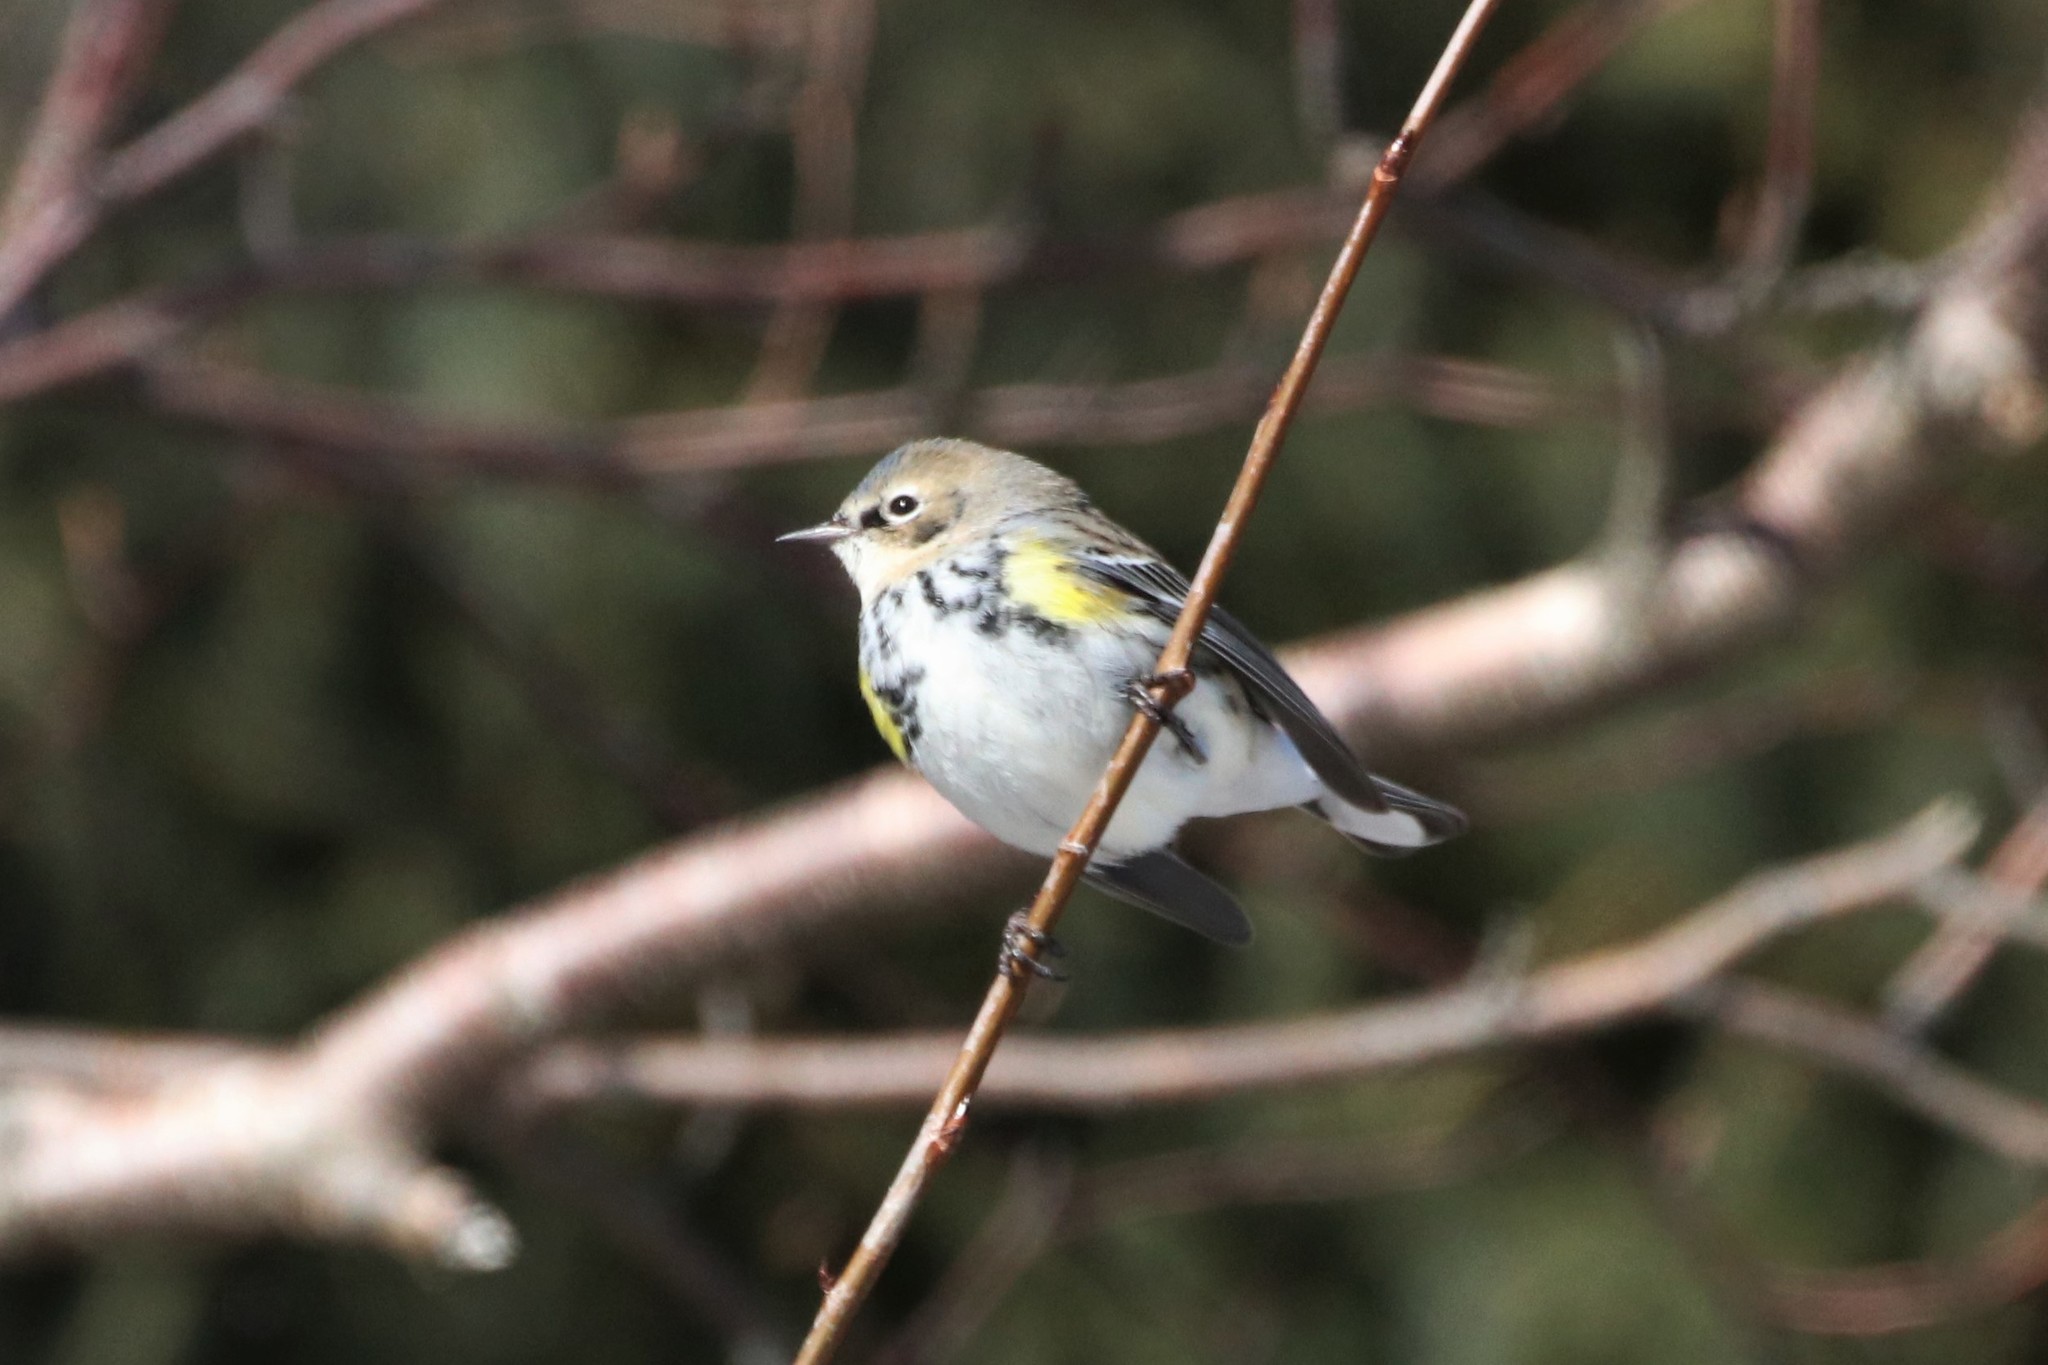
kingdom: Animalia
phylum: Chordata
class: Aves
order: Passeriformes
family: Parulidae
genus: Setophaga
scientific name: Setophaga coronata
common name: Myrtle warbler
